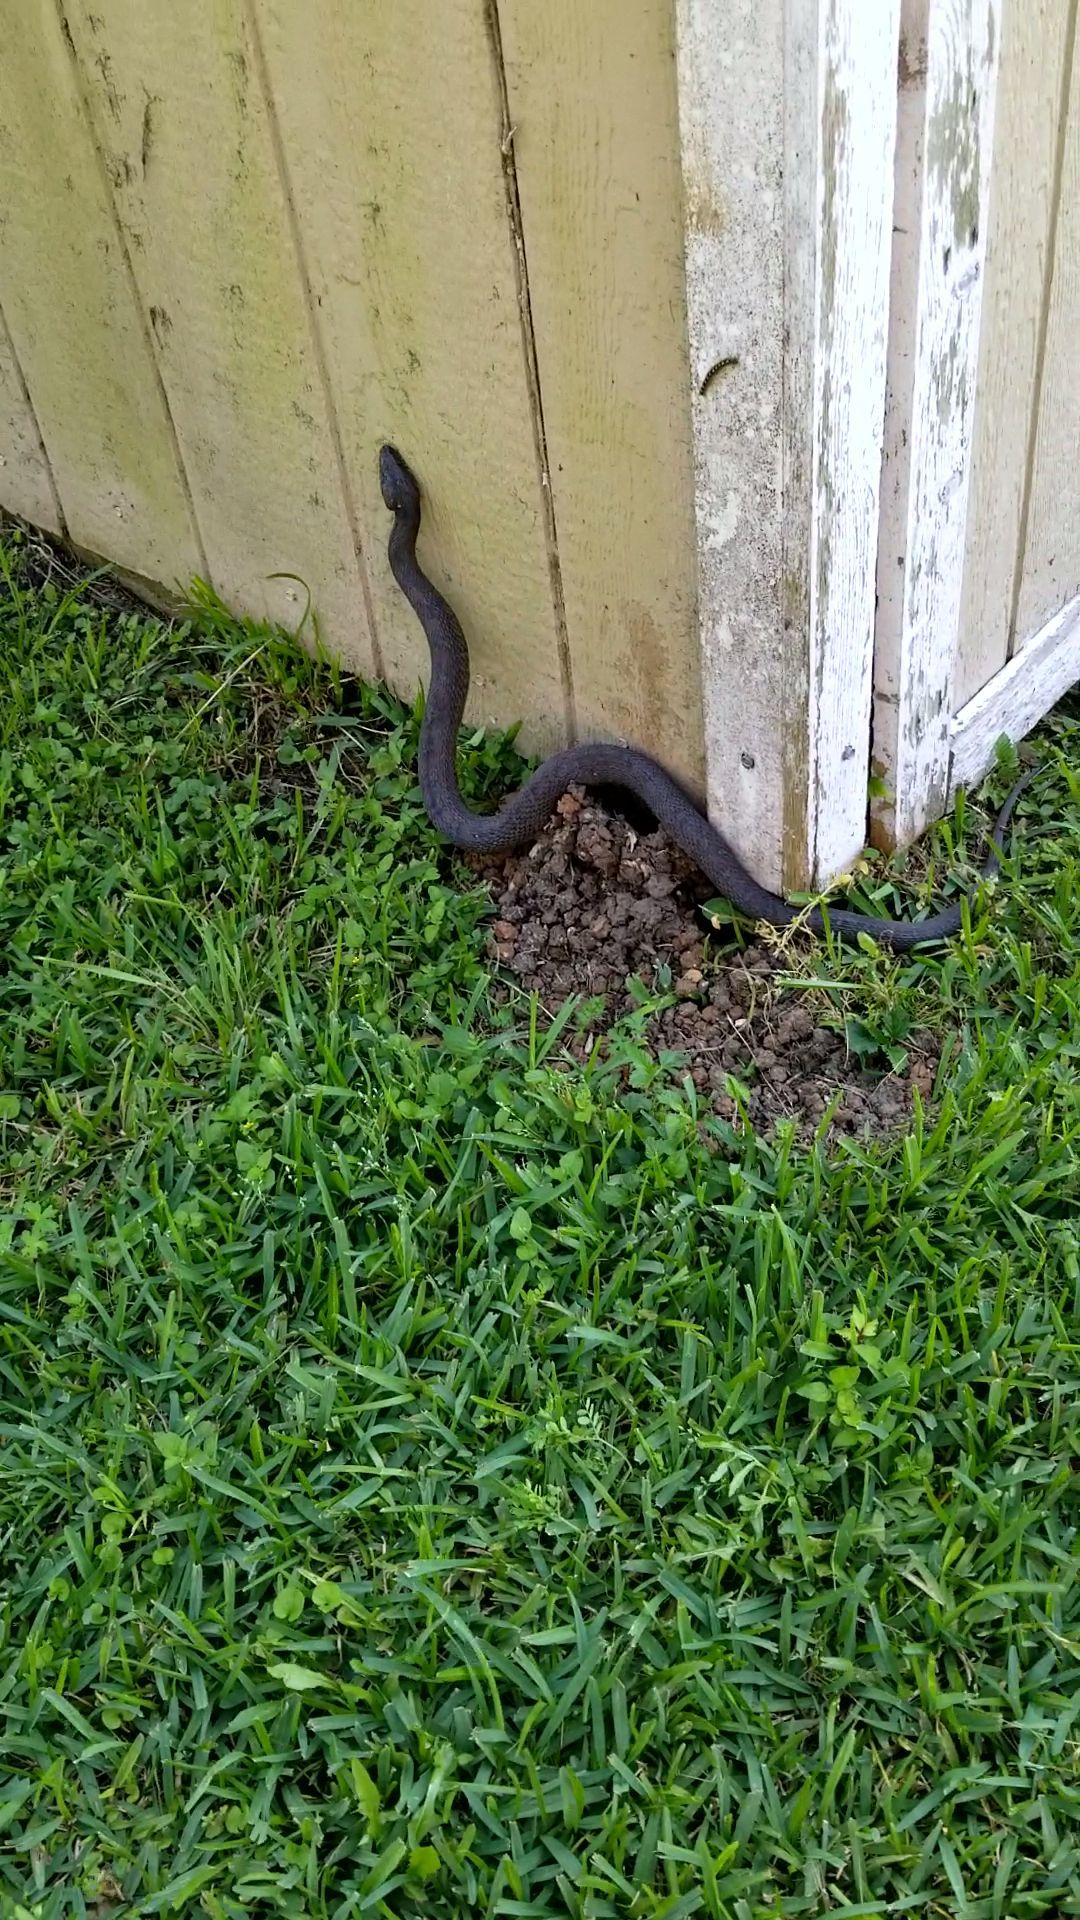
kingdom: Animalia
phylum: Chordata
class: Squamata
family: Colubridae
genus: Nerodia
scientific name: Nerodia erythrogaster
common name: Plainbelly water snake
